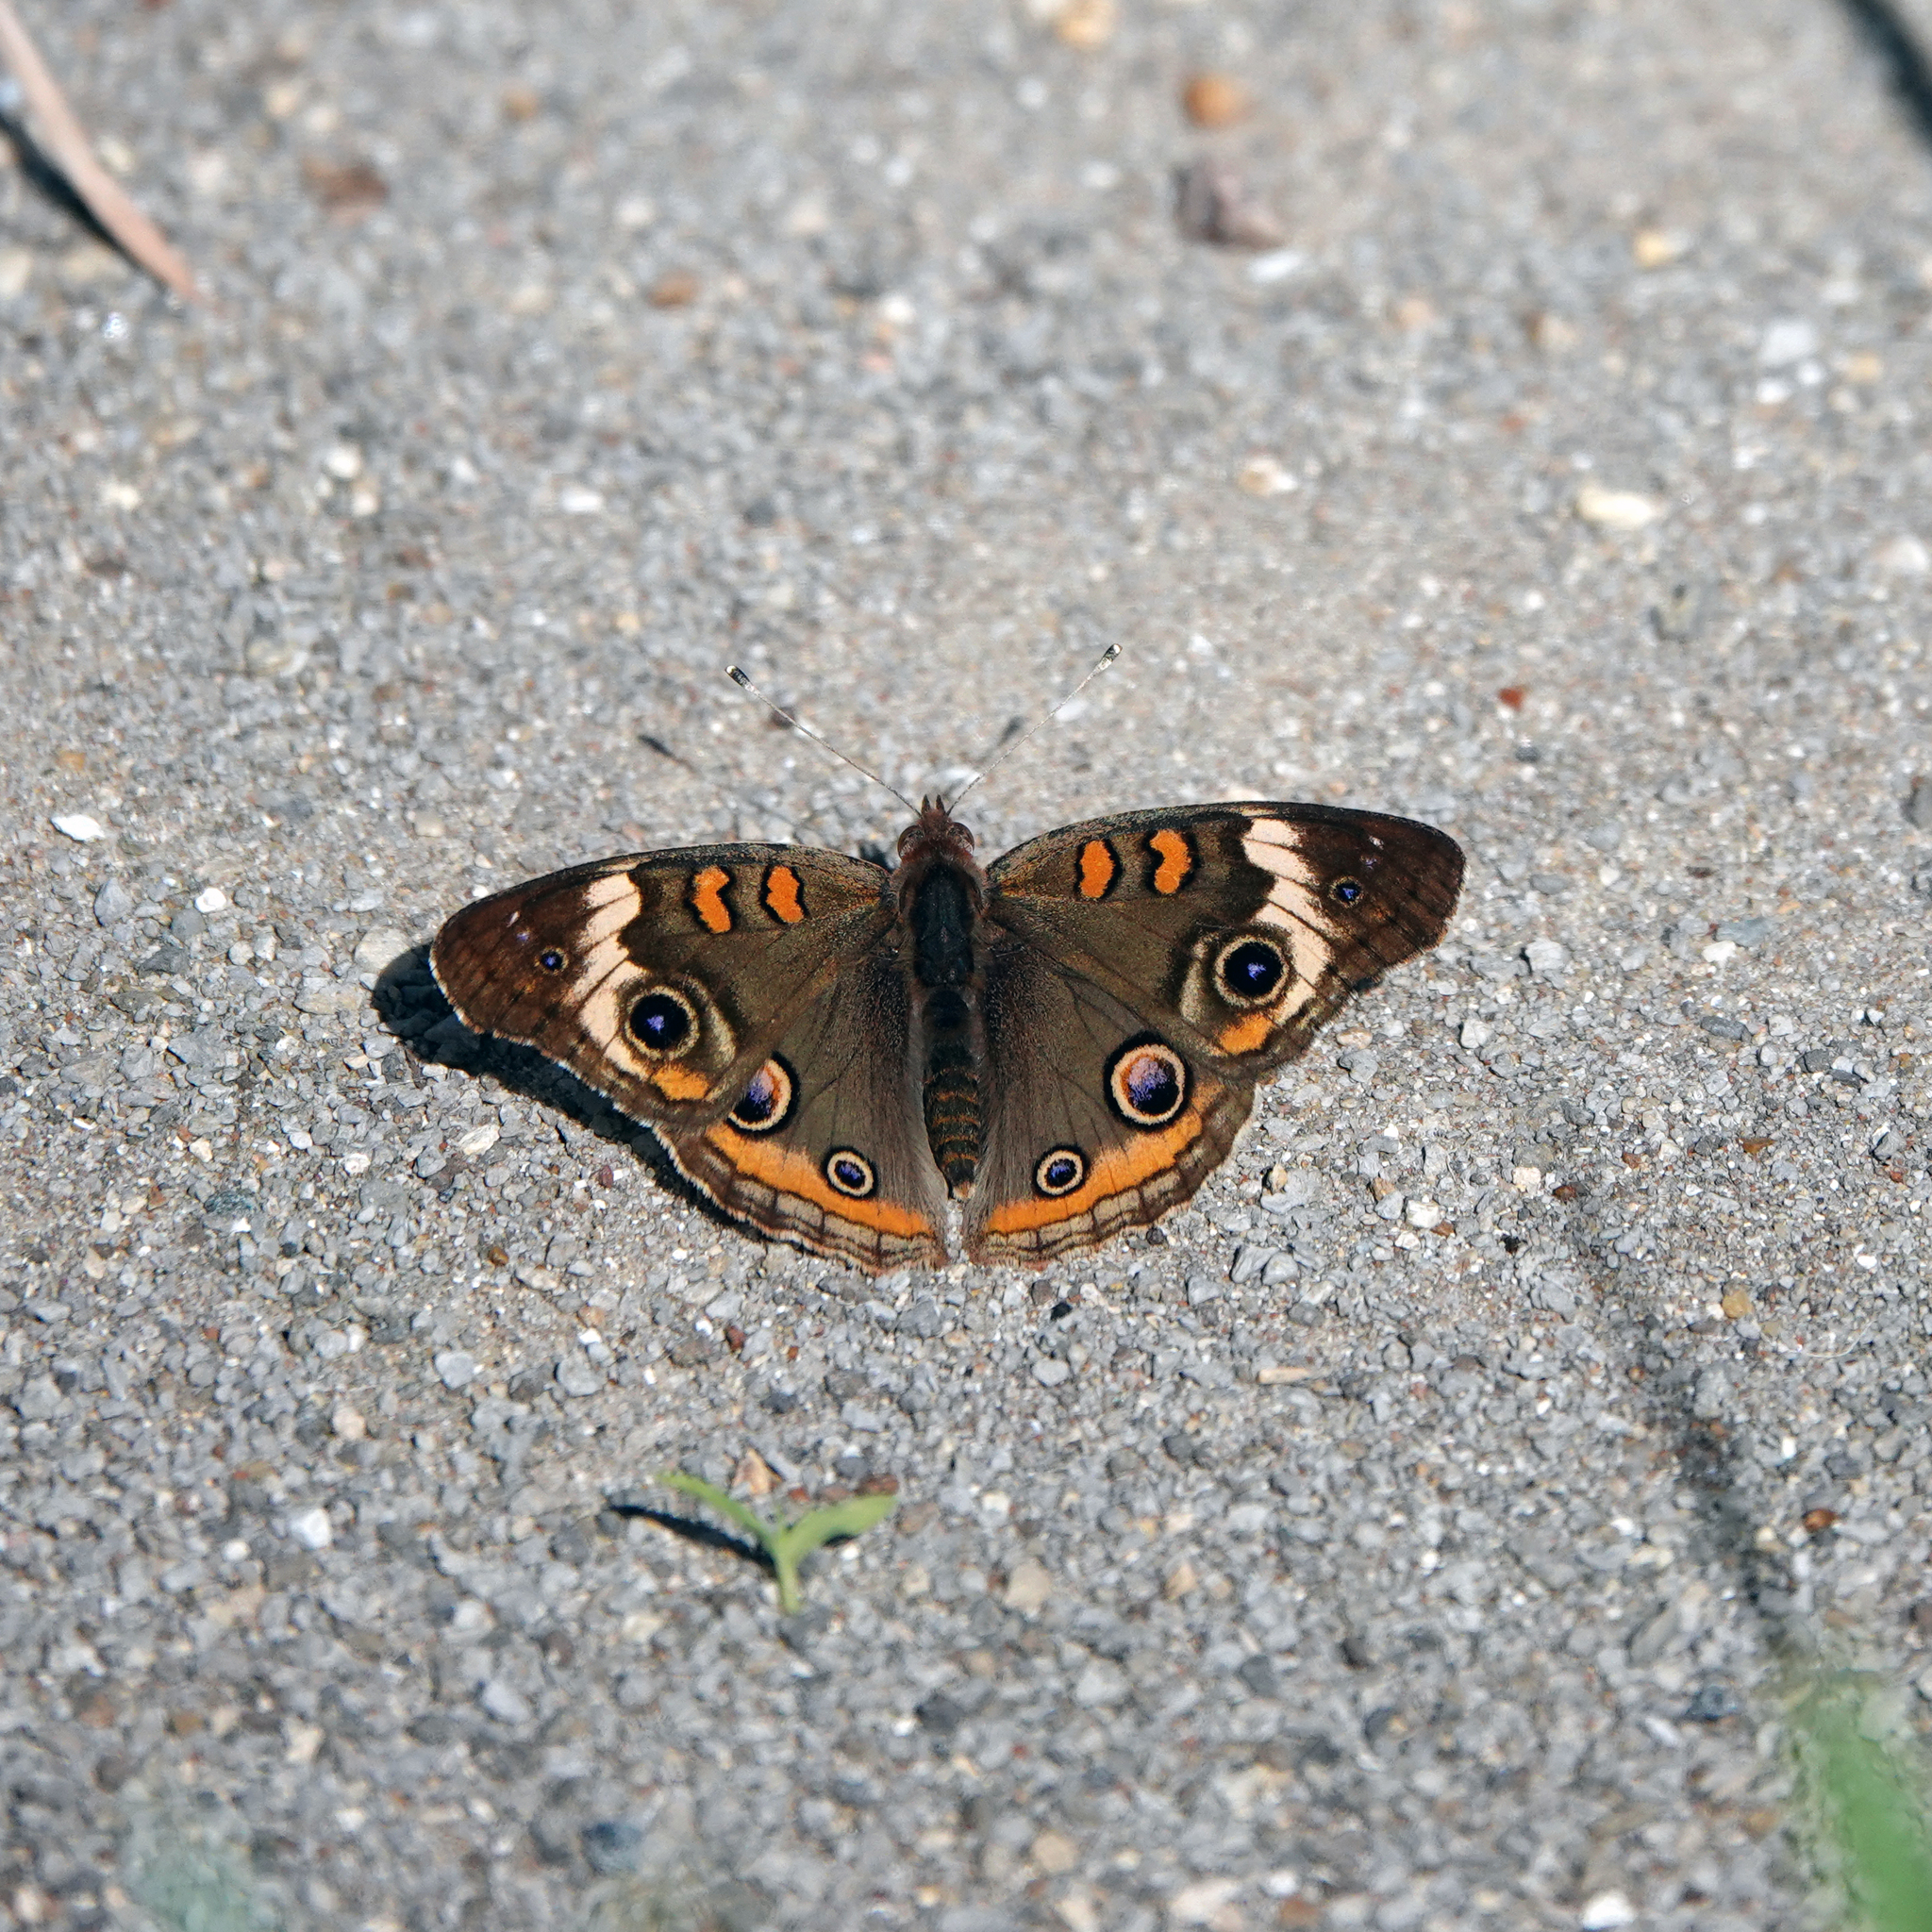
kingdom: Animalia
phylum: Arthropoda
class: Insecta
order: Lepidoptera
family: Nymphalidae
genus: Junonia
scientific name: Junonia coenia
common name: Common buckeye
